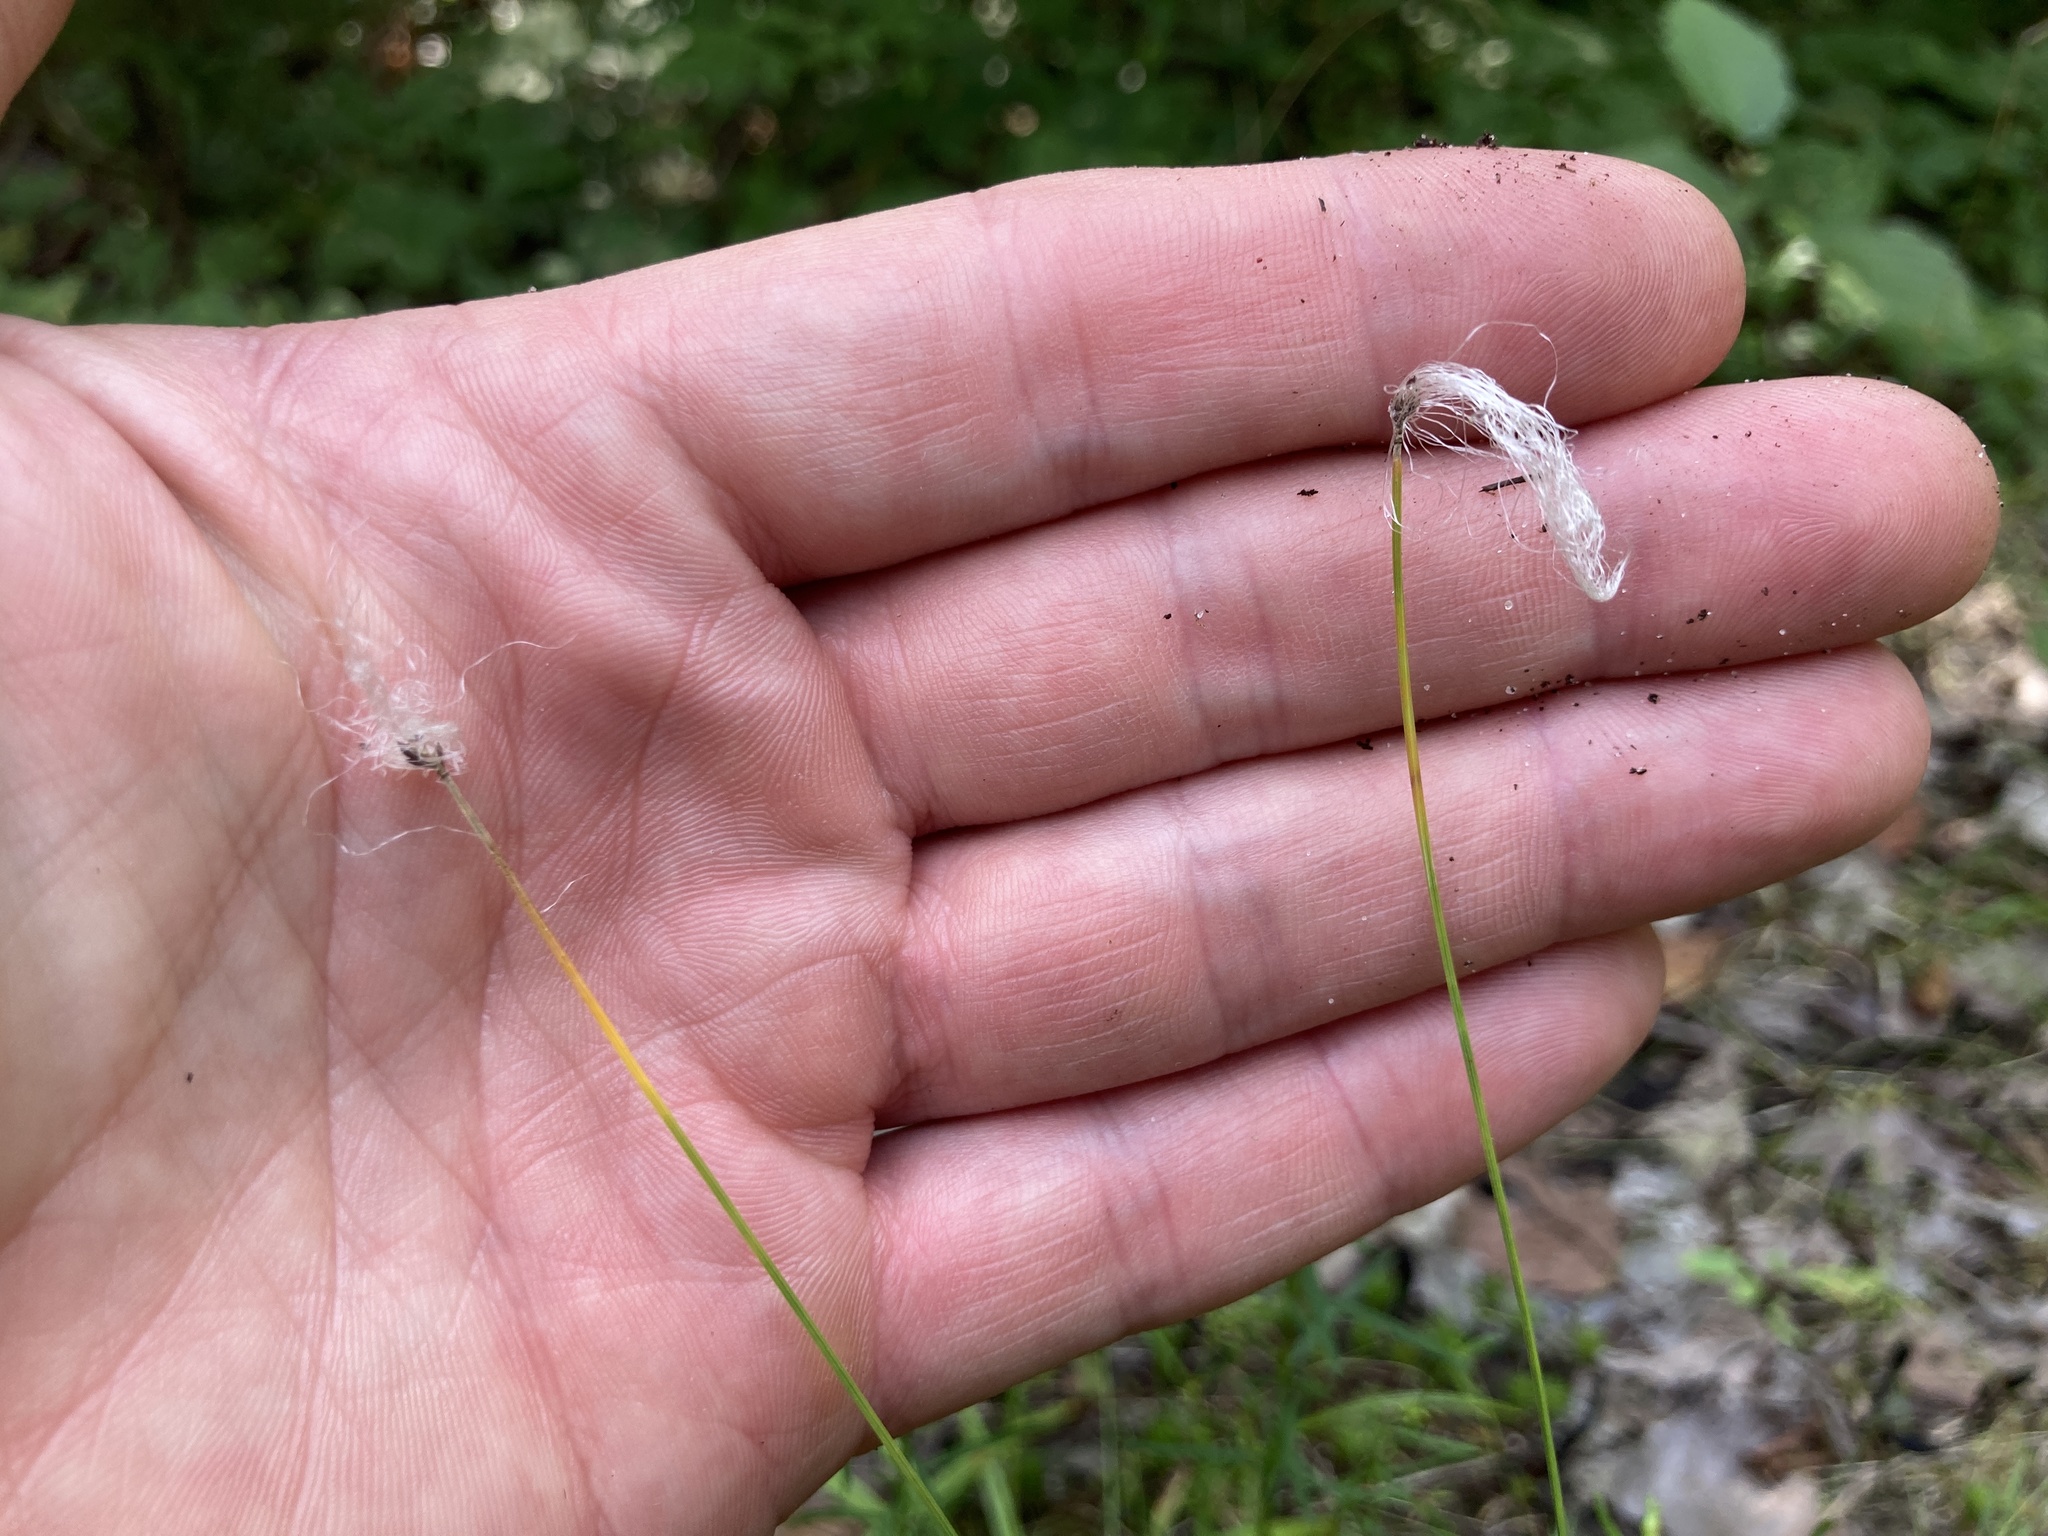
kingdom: Plantae
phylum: Tracheophyta
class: Liliopsida
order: Poales
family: Cyperaceae
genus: Trichophorum
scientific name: Trichophorum alpinum
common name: Alpine bulrush
